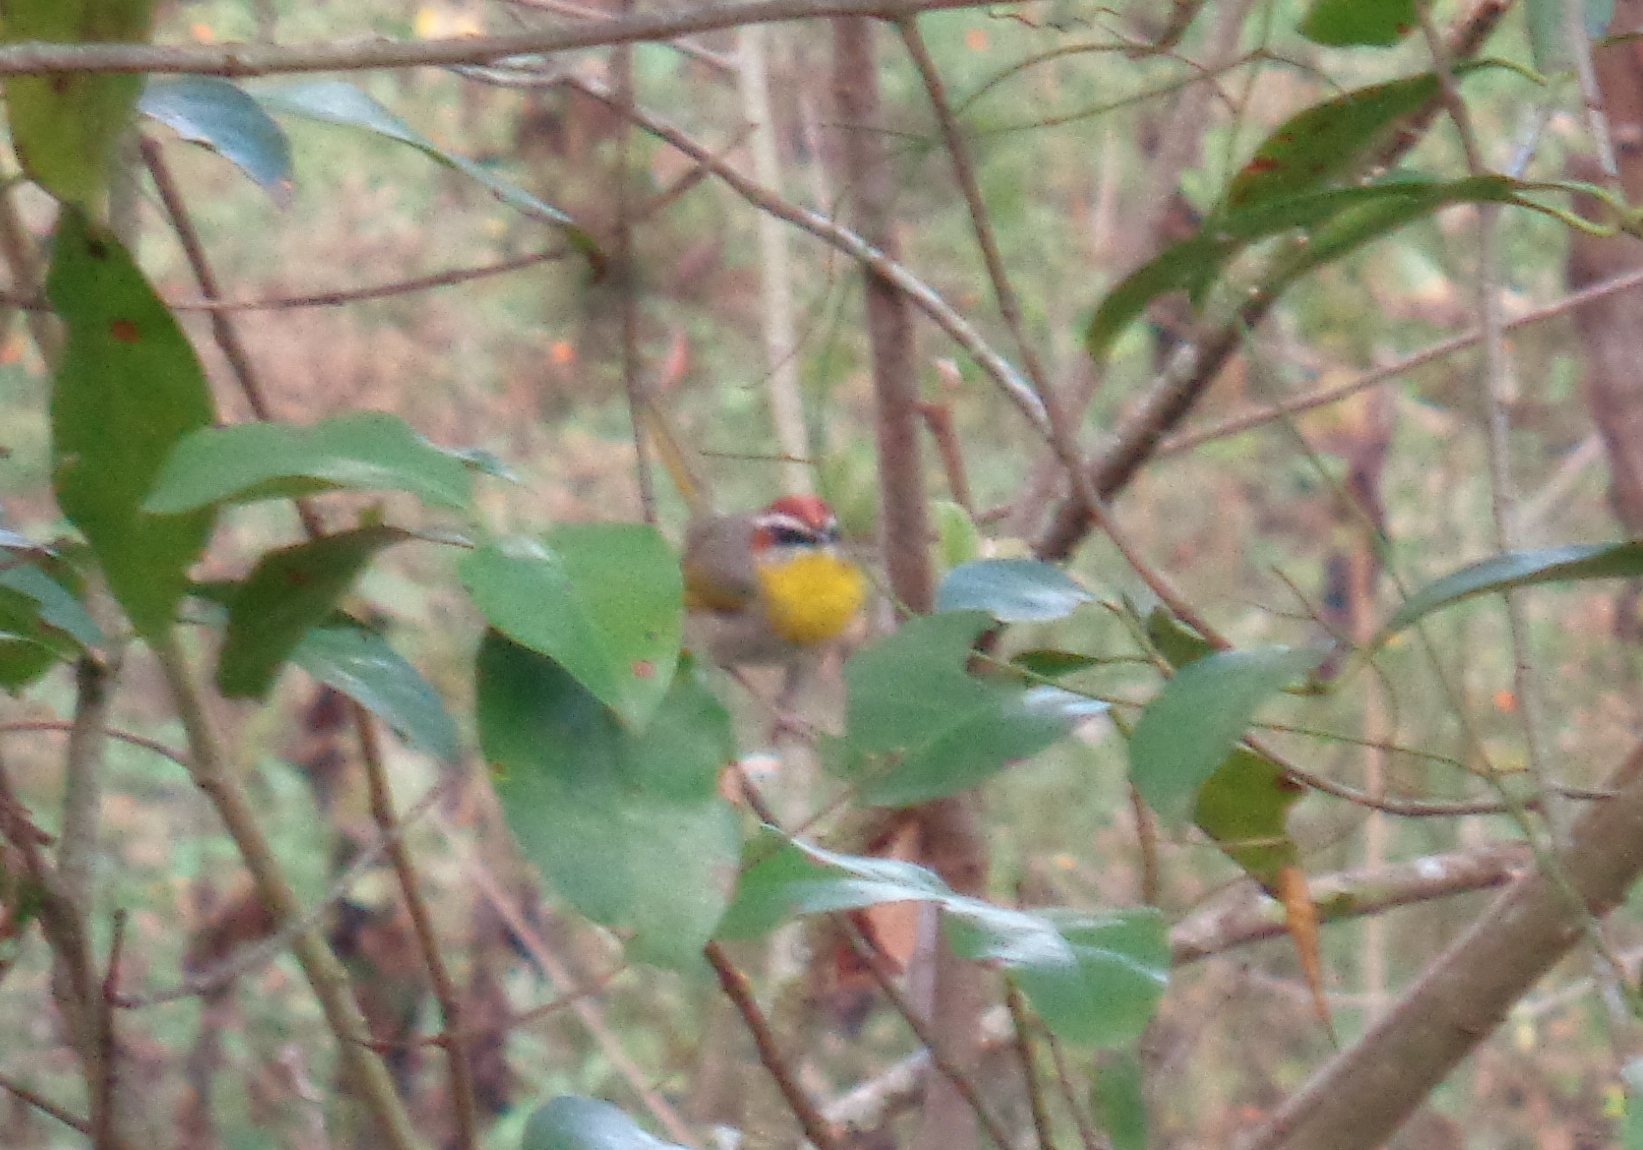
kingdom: Animalia
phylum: Chordata
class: Aves
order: Passeriformes
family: Parulidae
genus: Basileuterus
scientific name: Basileuterus rufifrons
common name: Rufous-capped warbler
